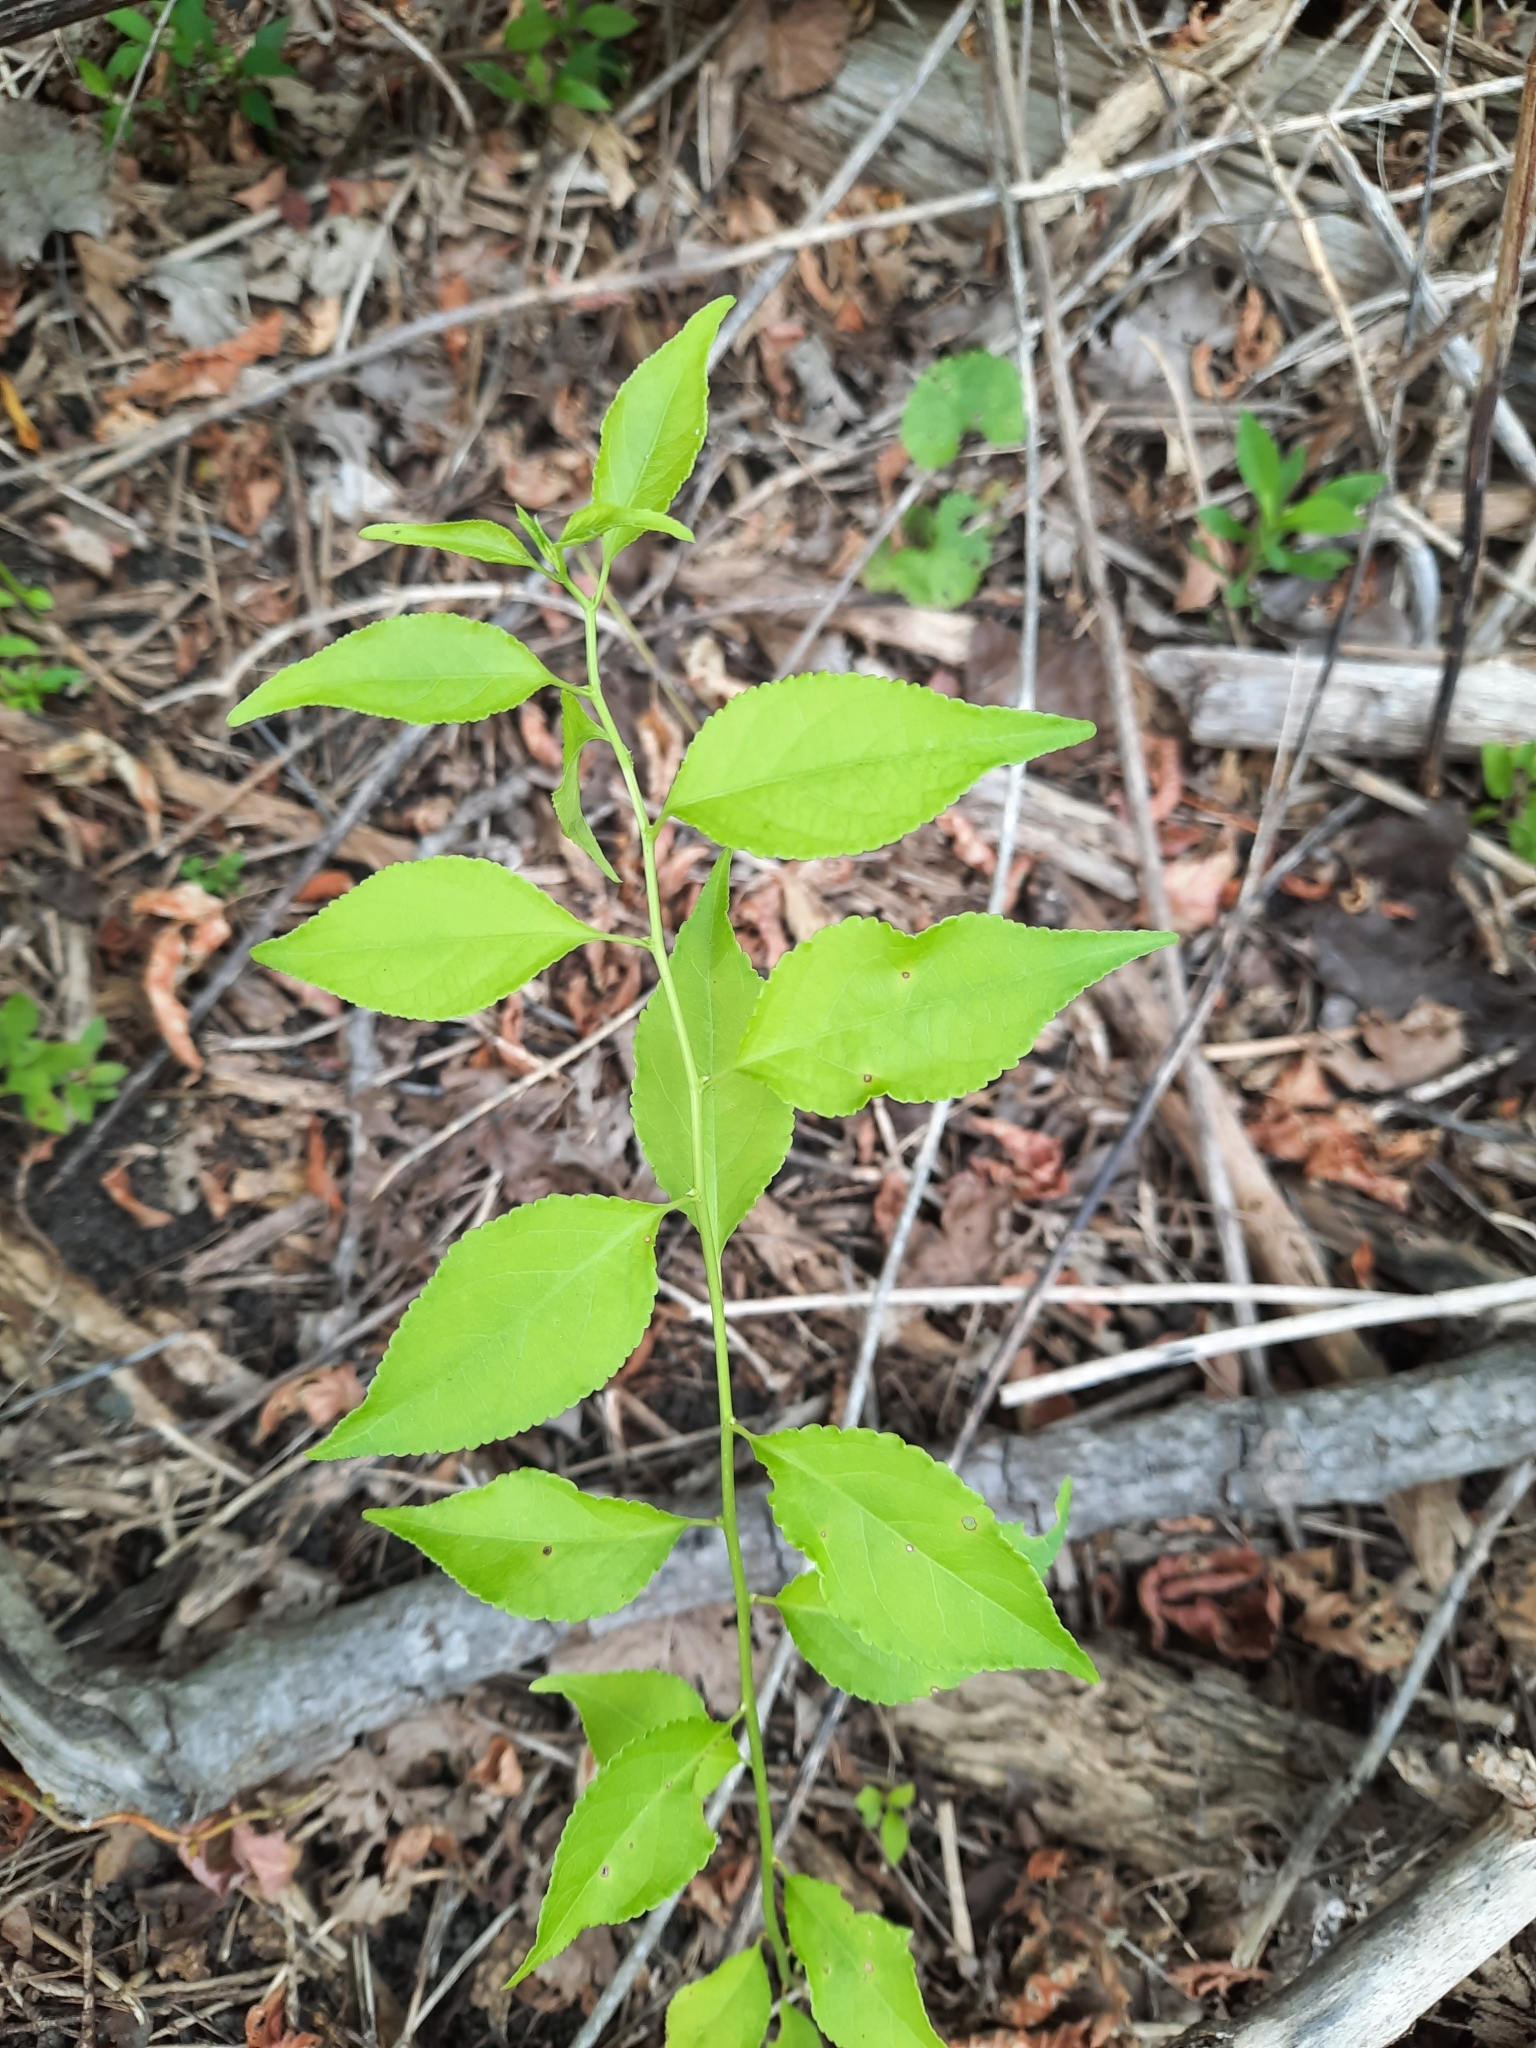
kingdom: Plantae
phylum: Tracheophyta
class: Magnoliopsida
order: Celastrales
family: Celastraceae
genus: Celastrus
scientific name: Celastrus orbiculatus
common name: Oriental bittersweet
